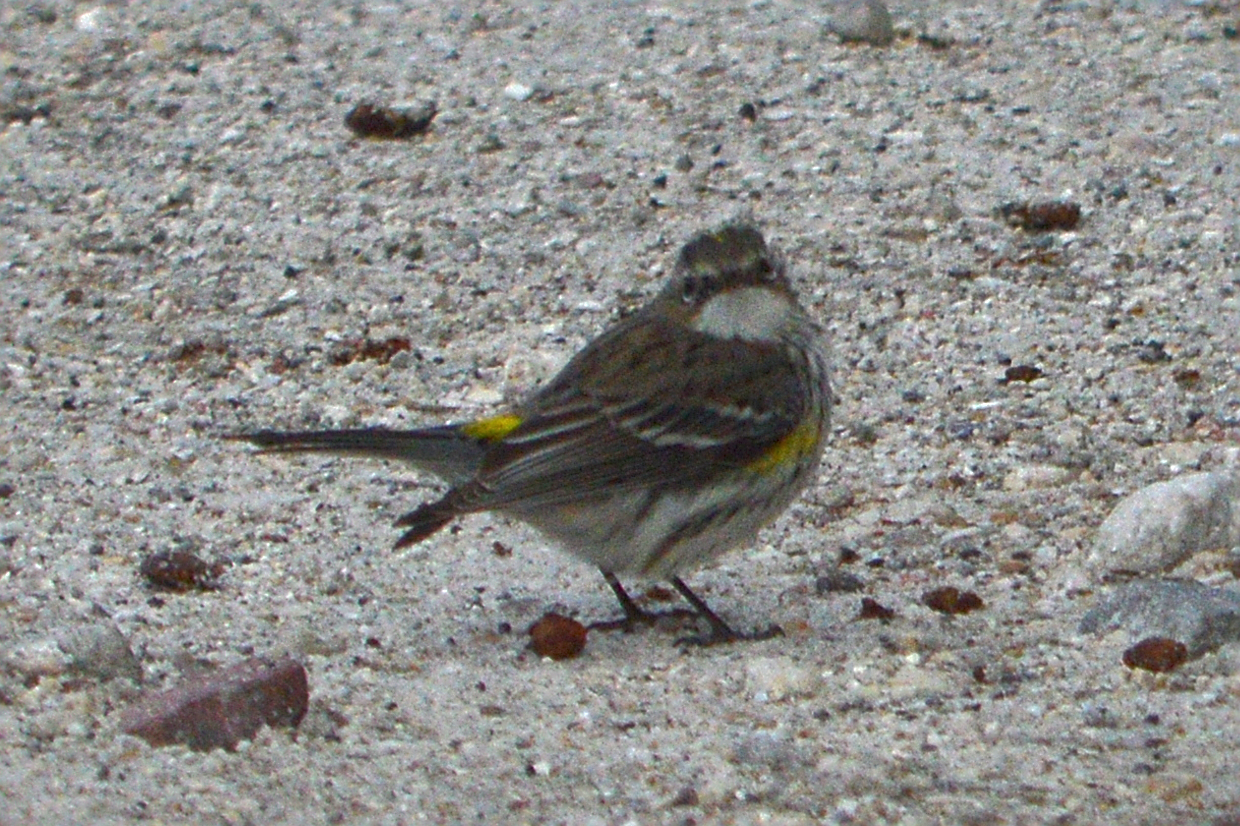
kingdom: Animalia
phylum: Chordata
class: Aves
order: Passeriformes
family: Parulidae
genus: Setophaga
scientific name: Setophaga coronata
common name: Myrtle warbler
